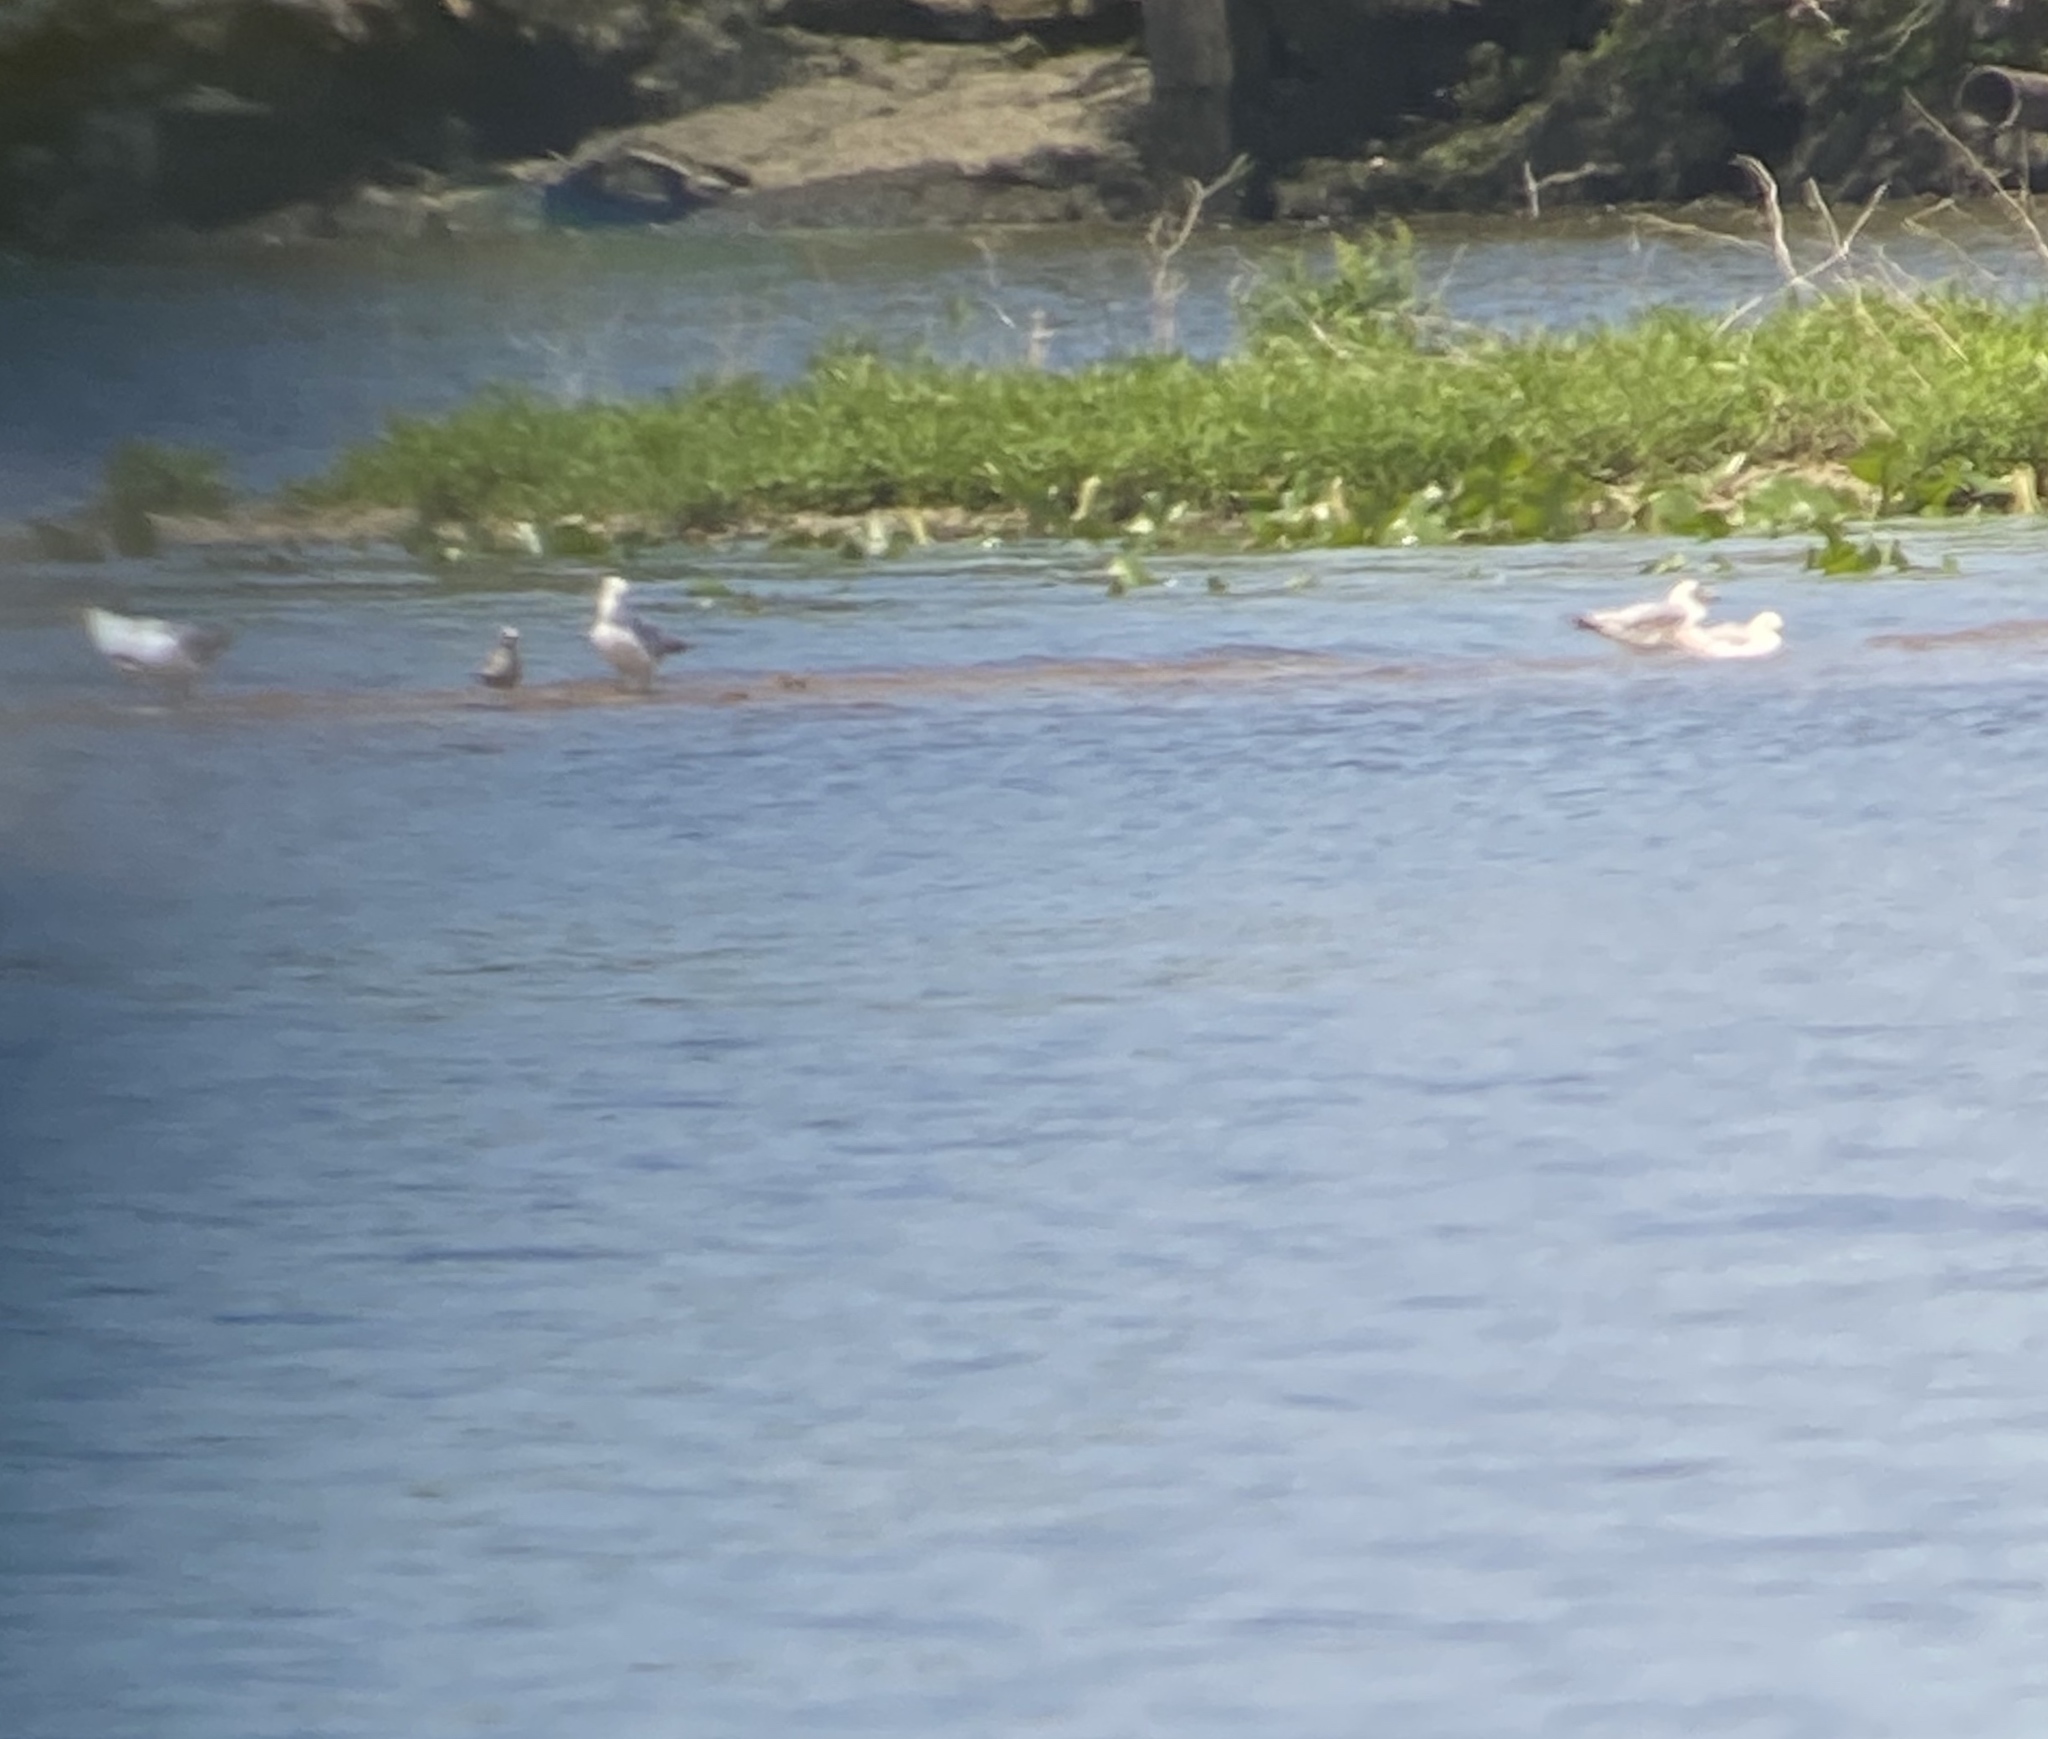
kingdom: Animalia
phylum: Chordata
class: Aves
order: Charadriiformes
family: Charadriidae
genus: Pluvialis
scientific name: Pluvialis squatarola
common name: Grey plover
